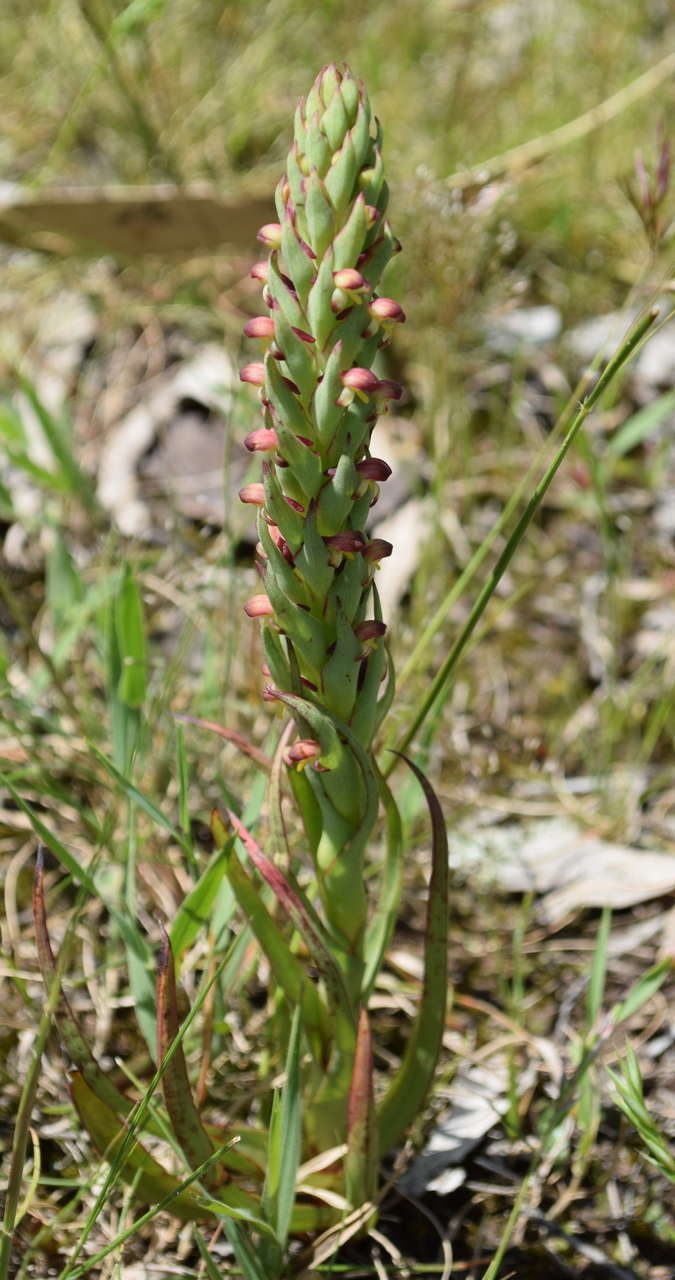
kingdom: Plantae
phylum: Tracheophyta
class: Liliopsida
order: Asparagales
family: Orchidaceae
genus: Disa
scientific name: Disa bracteata
